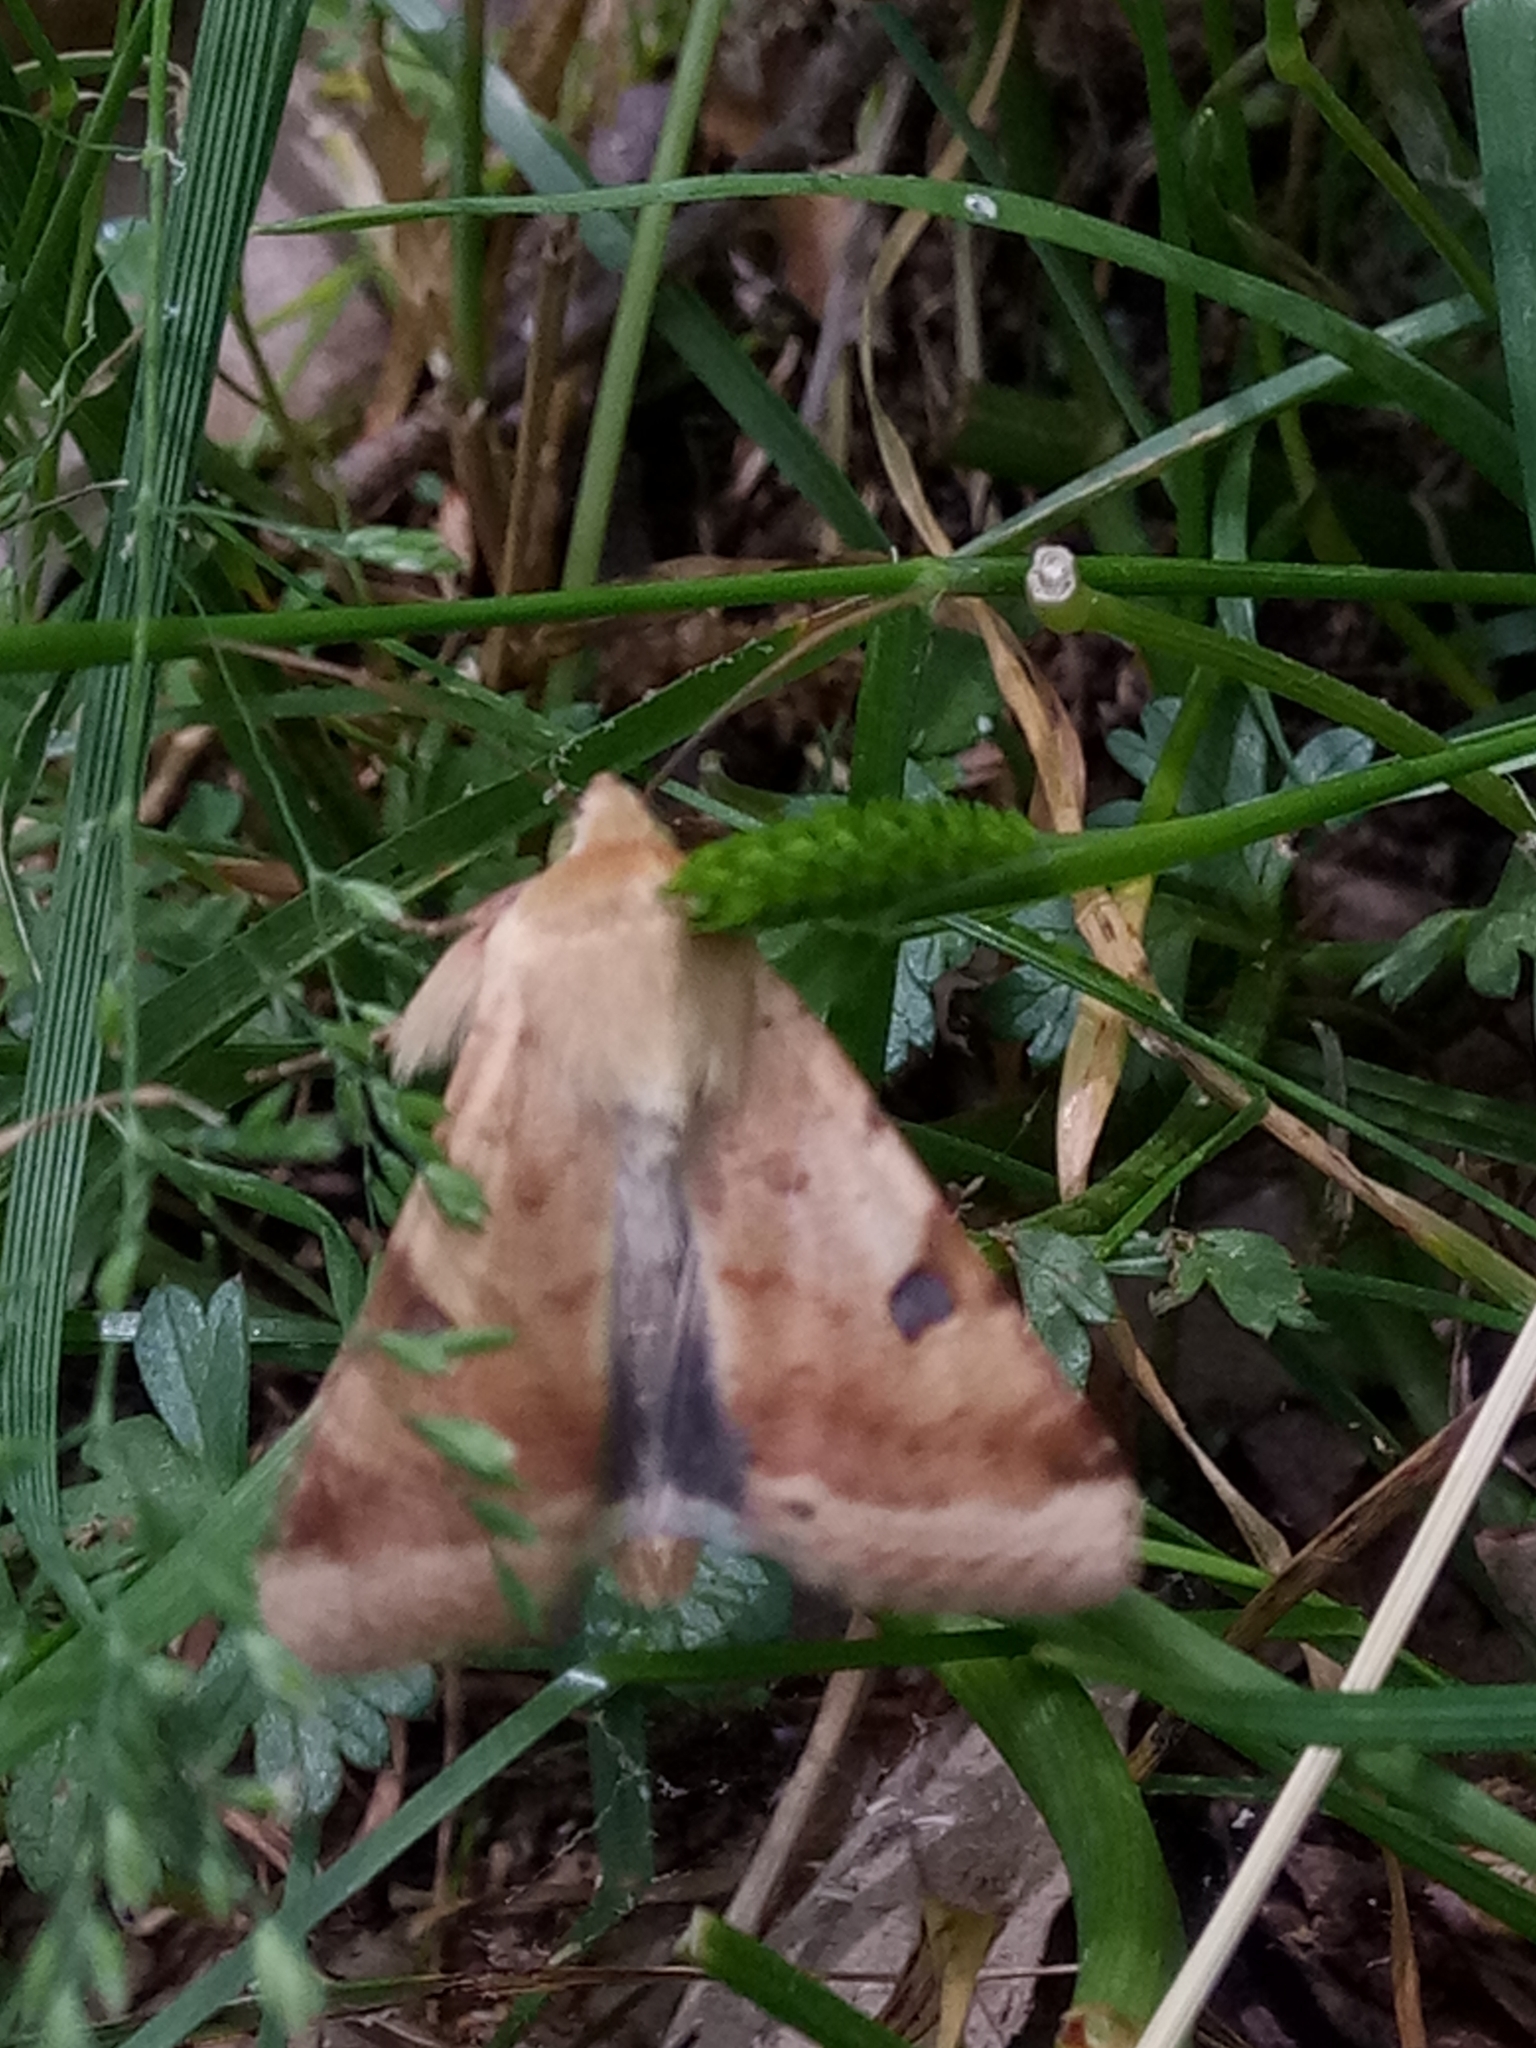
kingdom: Animalia
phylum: Arthropoda
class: Insecta
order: Lepidoptera
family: Noctuidae
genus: Heliothis
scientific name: Heliothis peltigera
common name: Bordered straw
